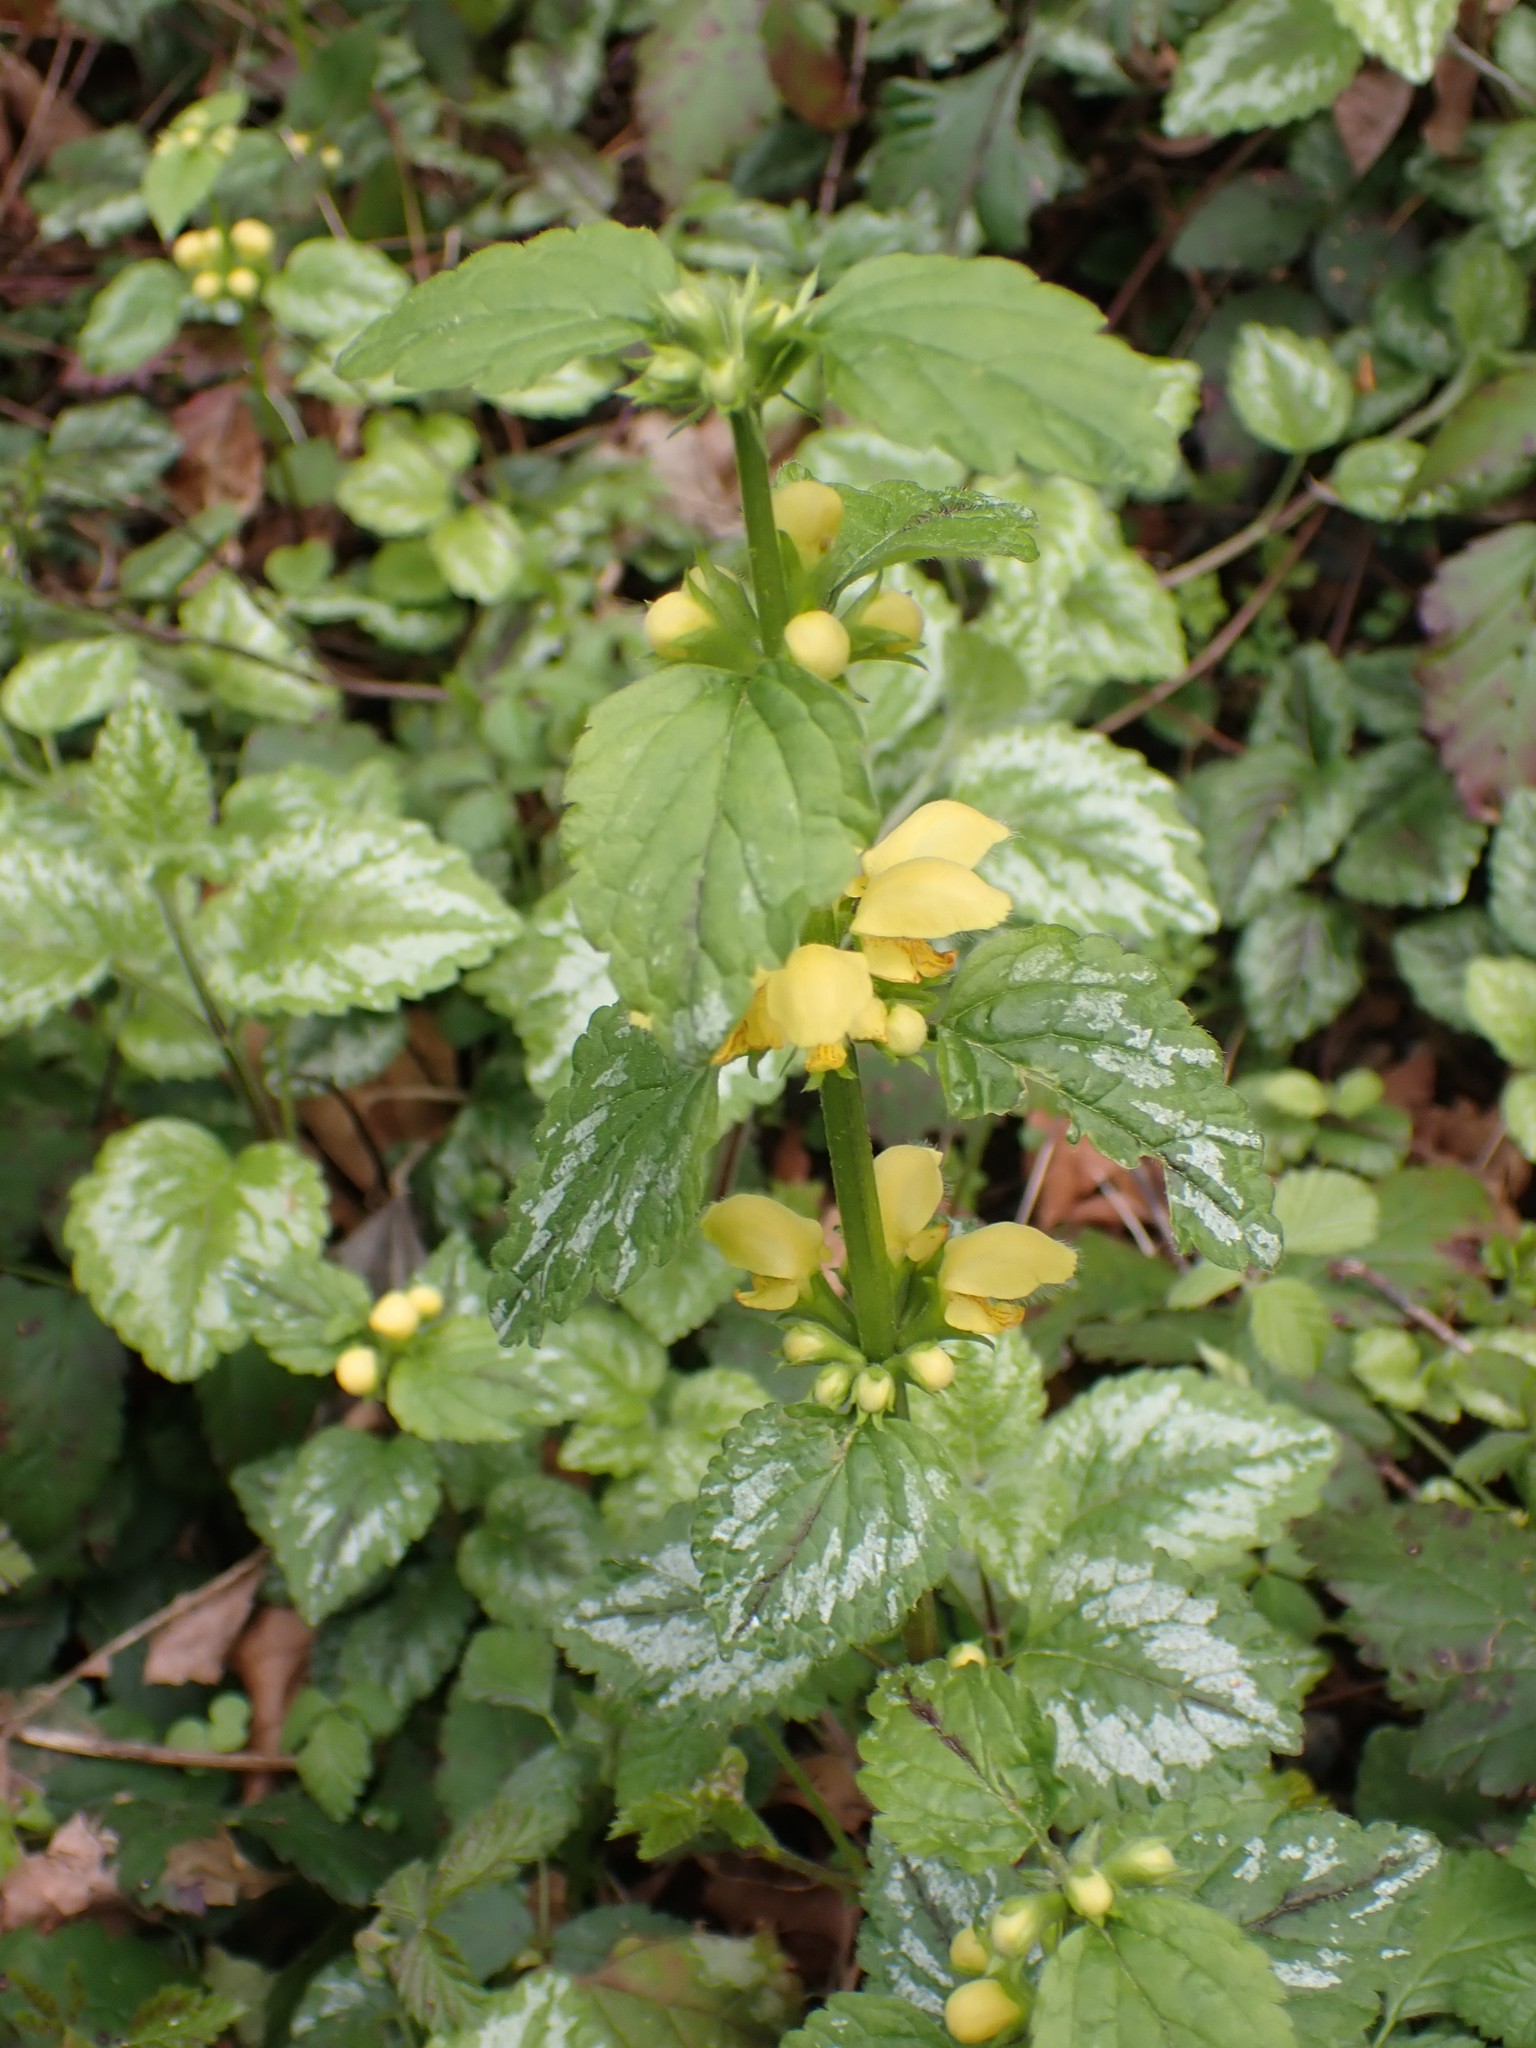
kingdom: Plantae
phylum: Tracheophyta
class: Magnoliopsida
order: Lamiales
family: Lamiaceae
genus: Lamium
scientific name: Lamium galeobdolon
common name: Yellow archangel
